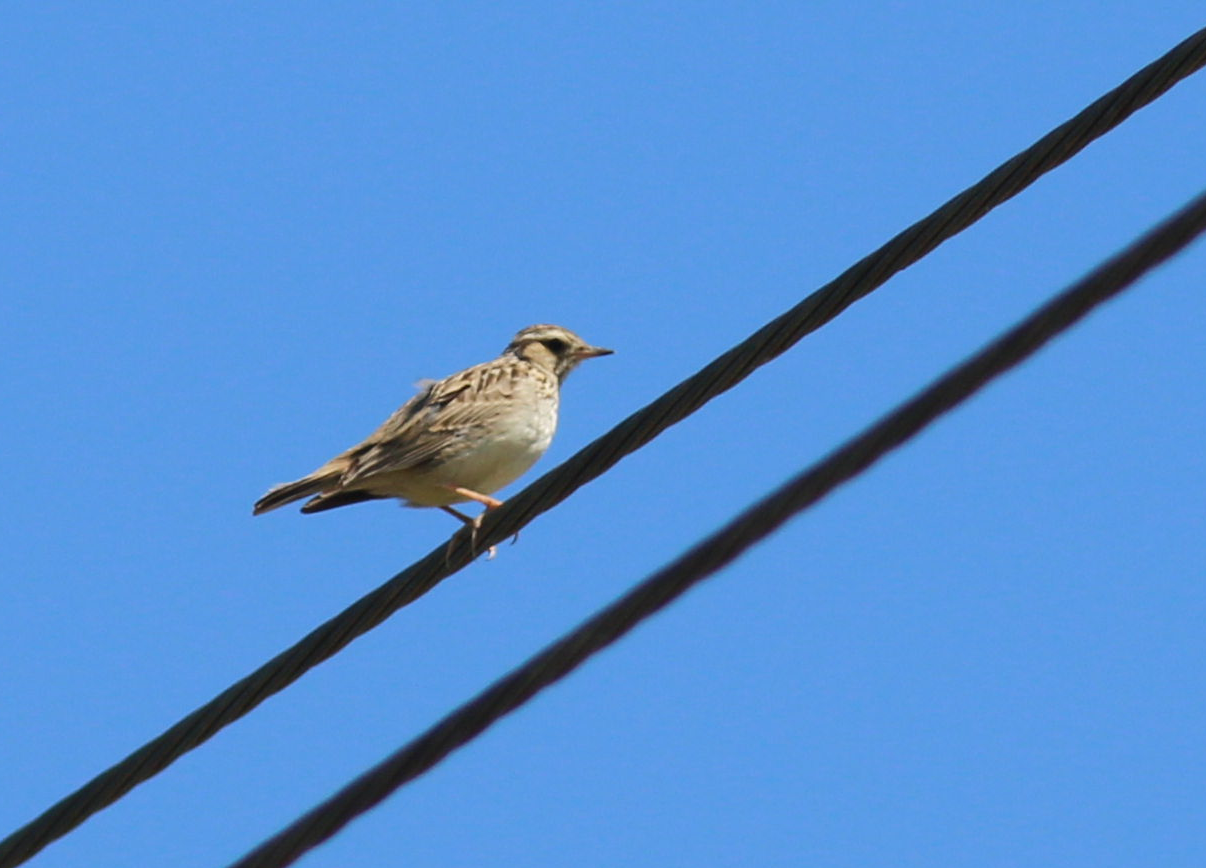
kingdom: Animalia
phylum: Chordata
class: Aves
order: Passeriformes
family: Alaudidae
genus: Lullula
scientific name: Lullula arborea
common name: Woodlark
